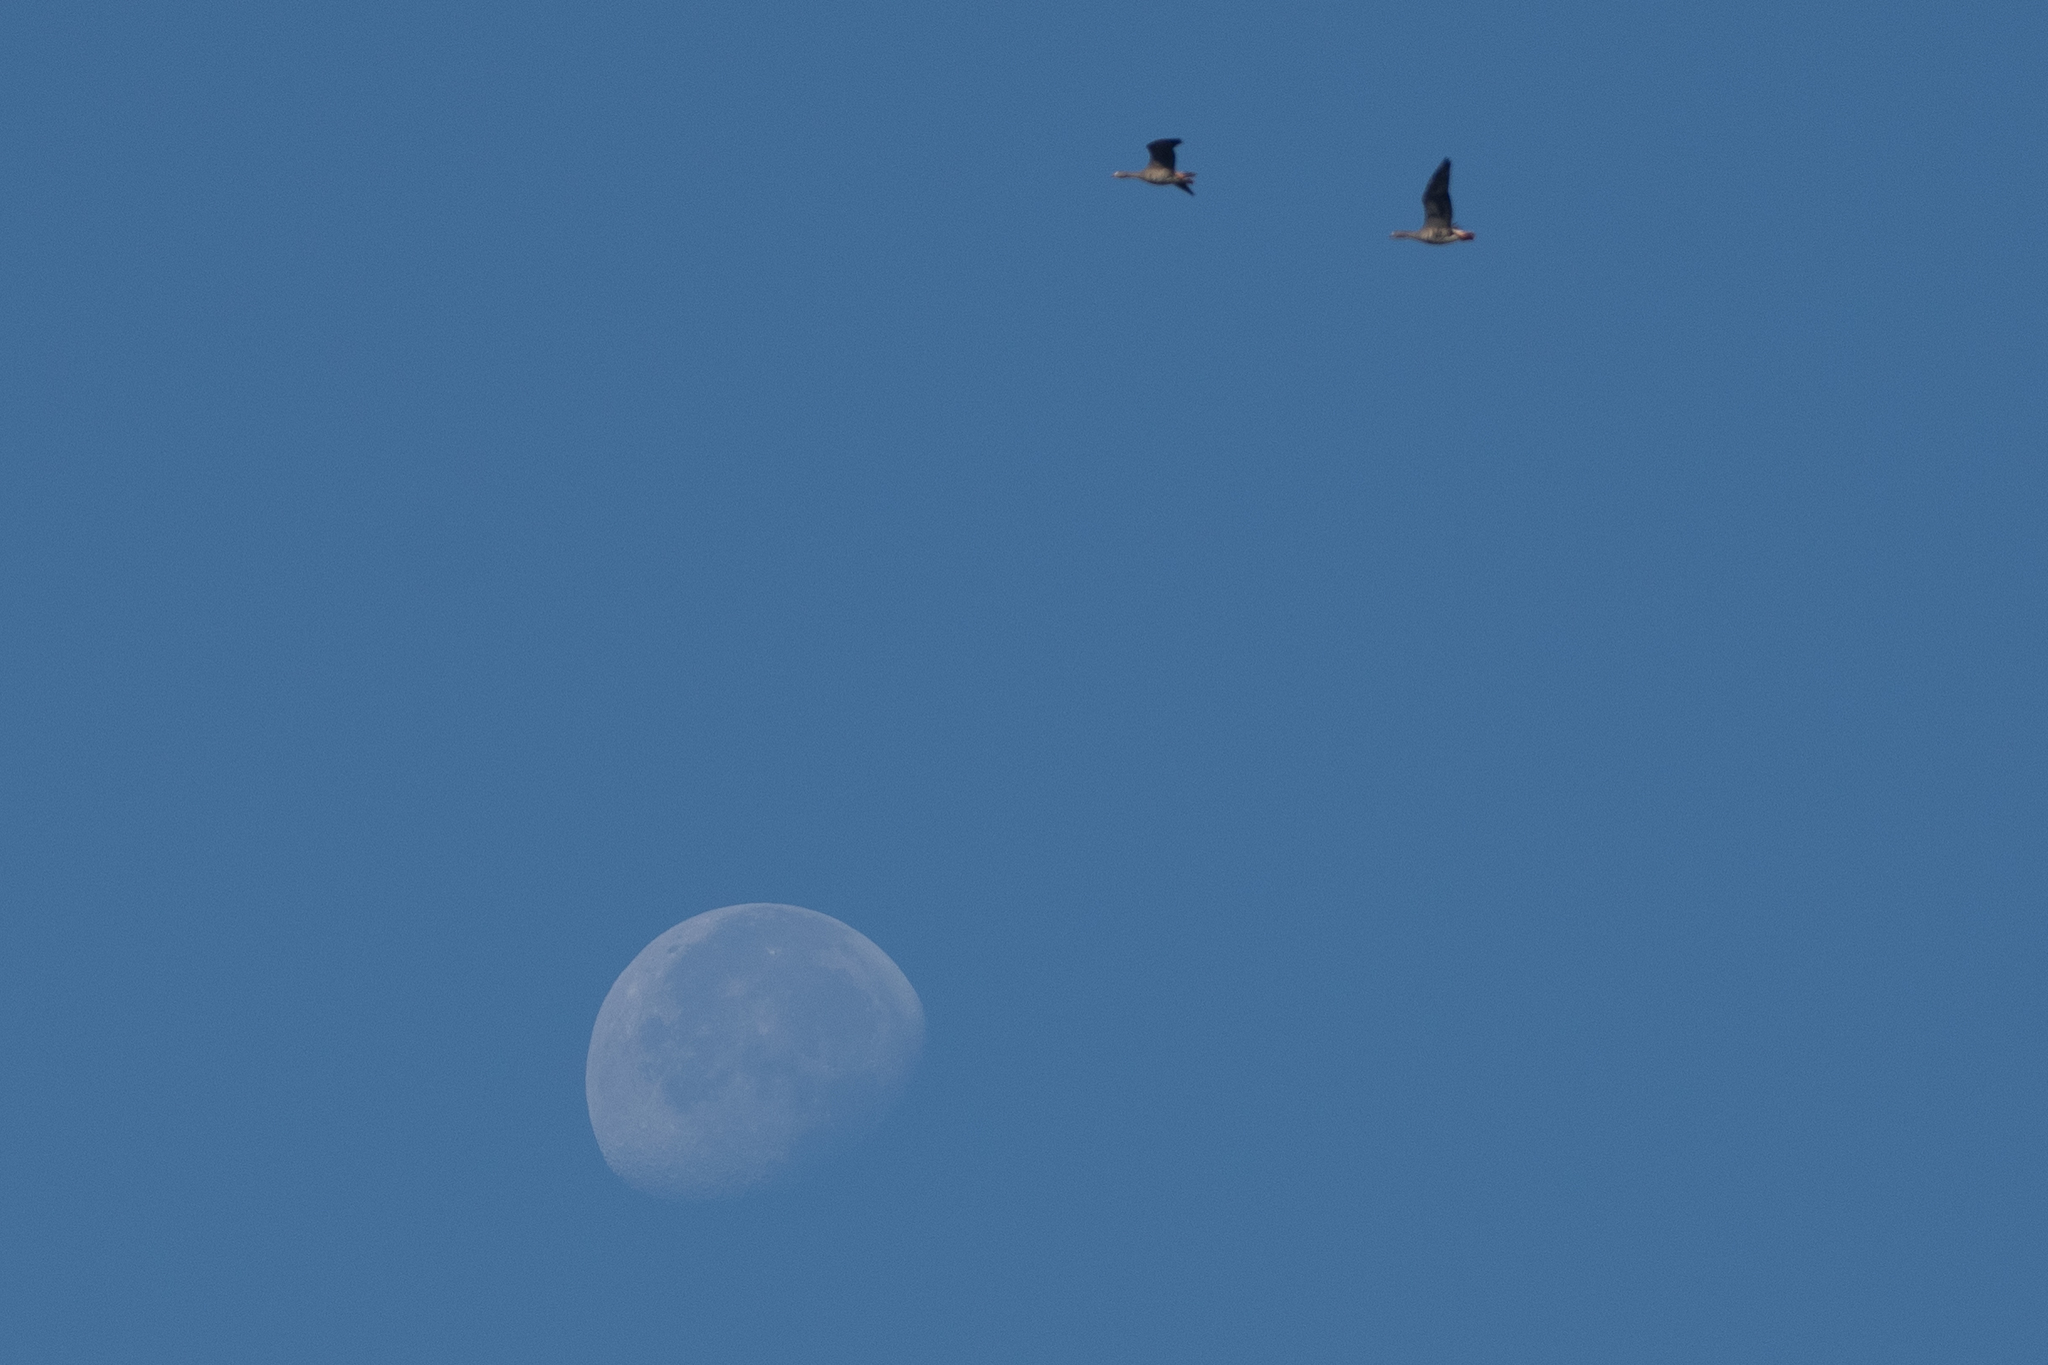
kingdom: Animalia
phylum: Chordata
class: Aves
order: Anseriformes
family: Anatidae
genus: Anser
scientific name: Anser albifrons
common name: Greater white-fronted goose
